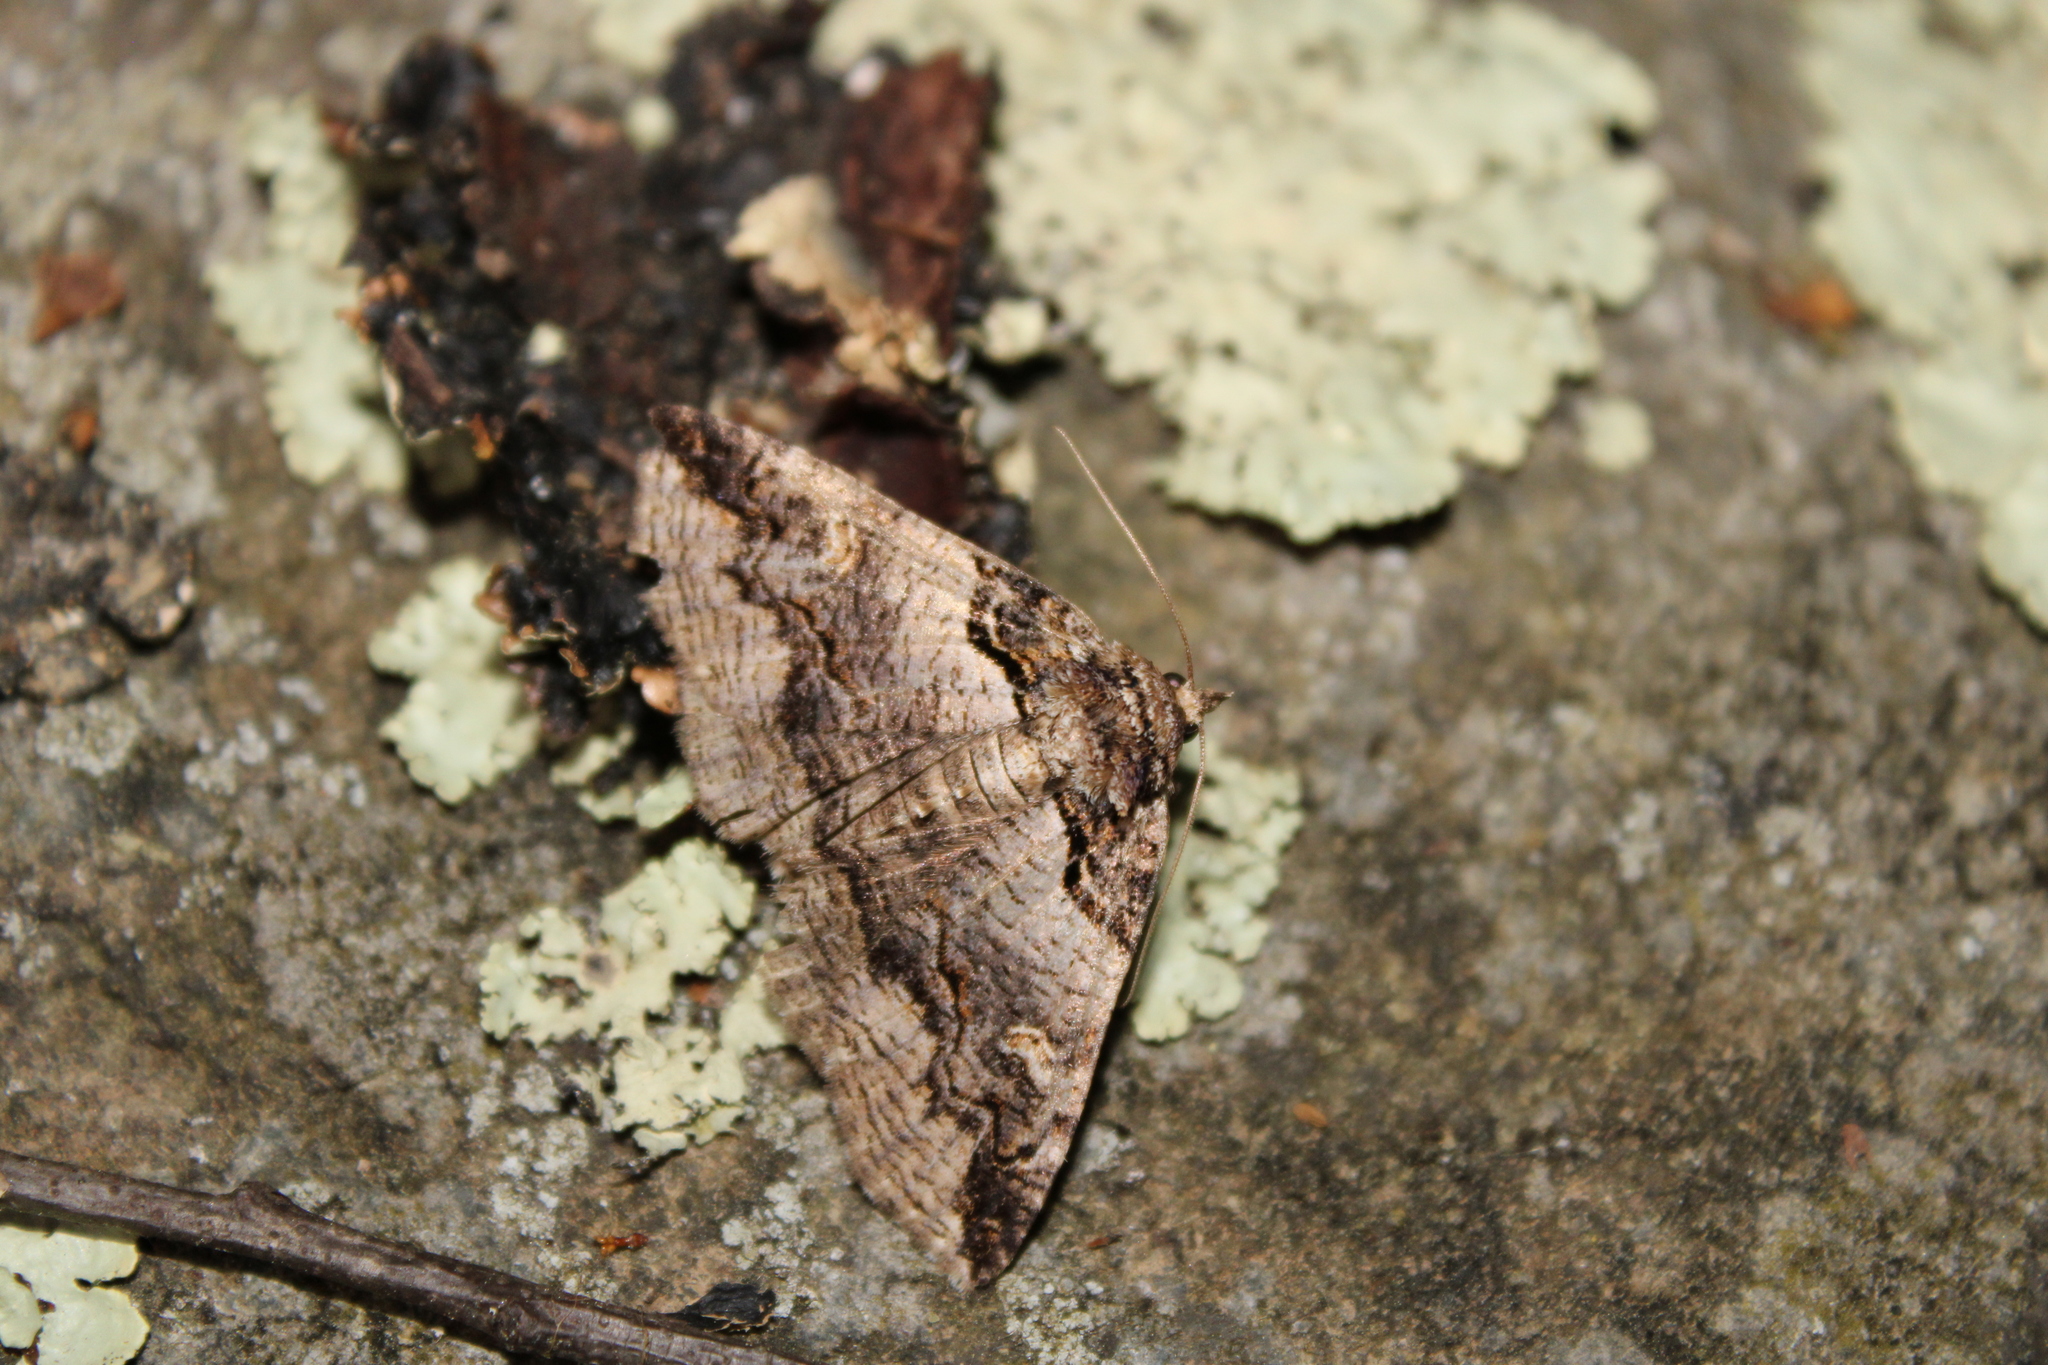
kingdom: Animalia
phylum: Arthropoda
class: Insecta
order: Lepidoptera
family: Erebidae
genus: Zale
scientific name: Zale intenta
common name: Intent zale moth
